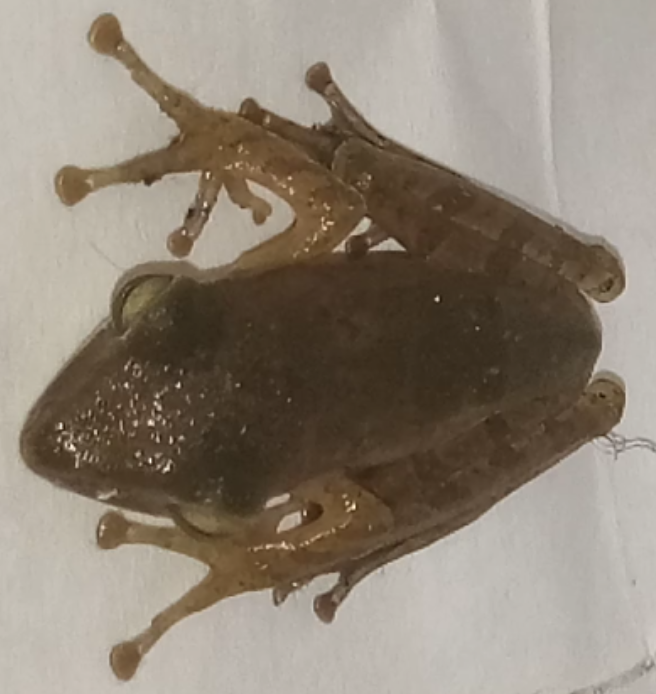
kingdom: Animalia
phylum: Chordata
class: Amphibia
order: Anura
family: Rhacophoridae
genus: Polypedates
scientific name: Polypedates leucomystax
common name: Common tree frog/four-lined tree frog
